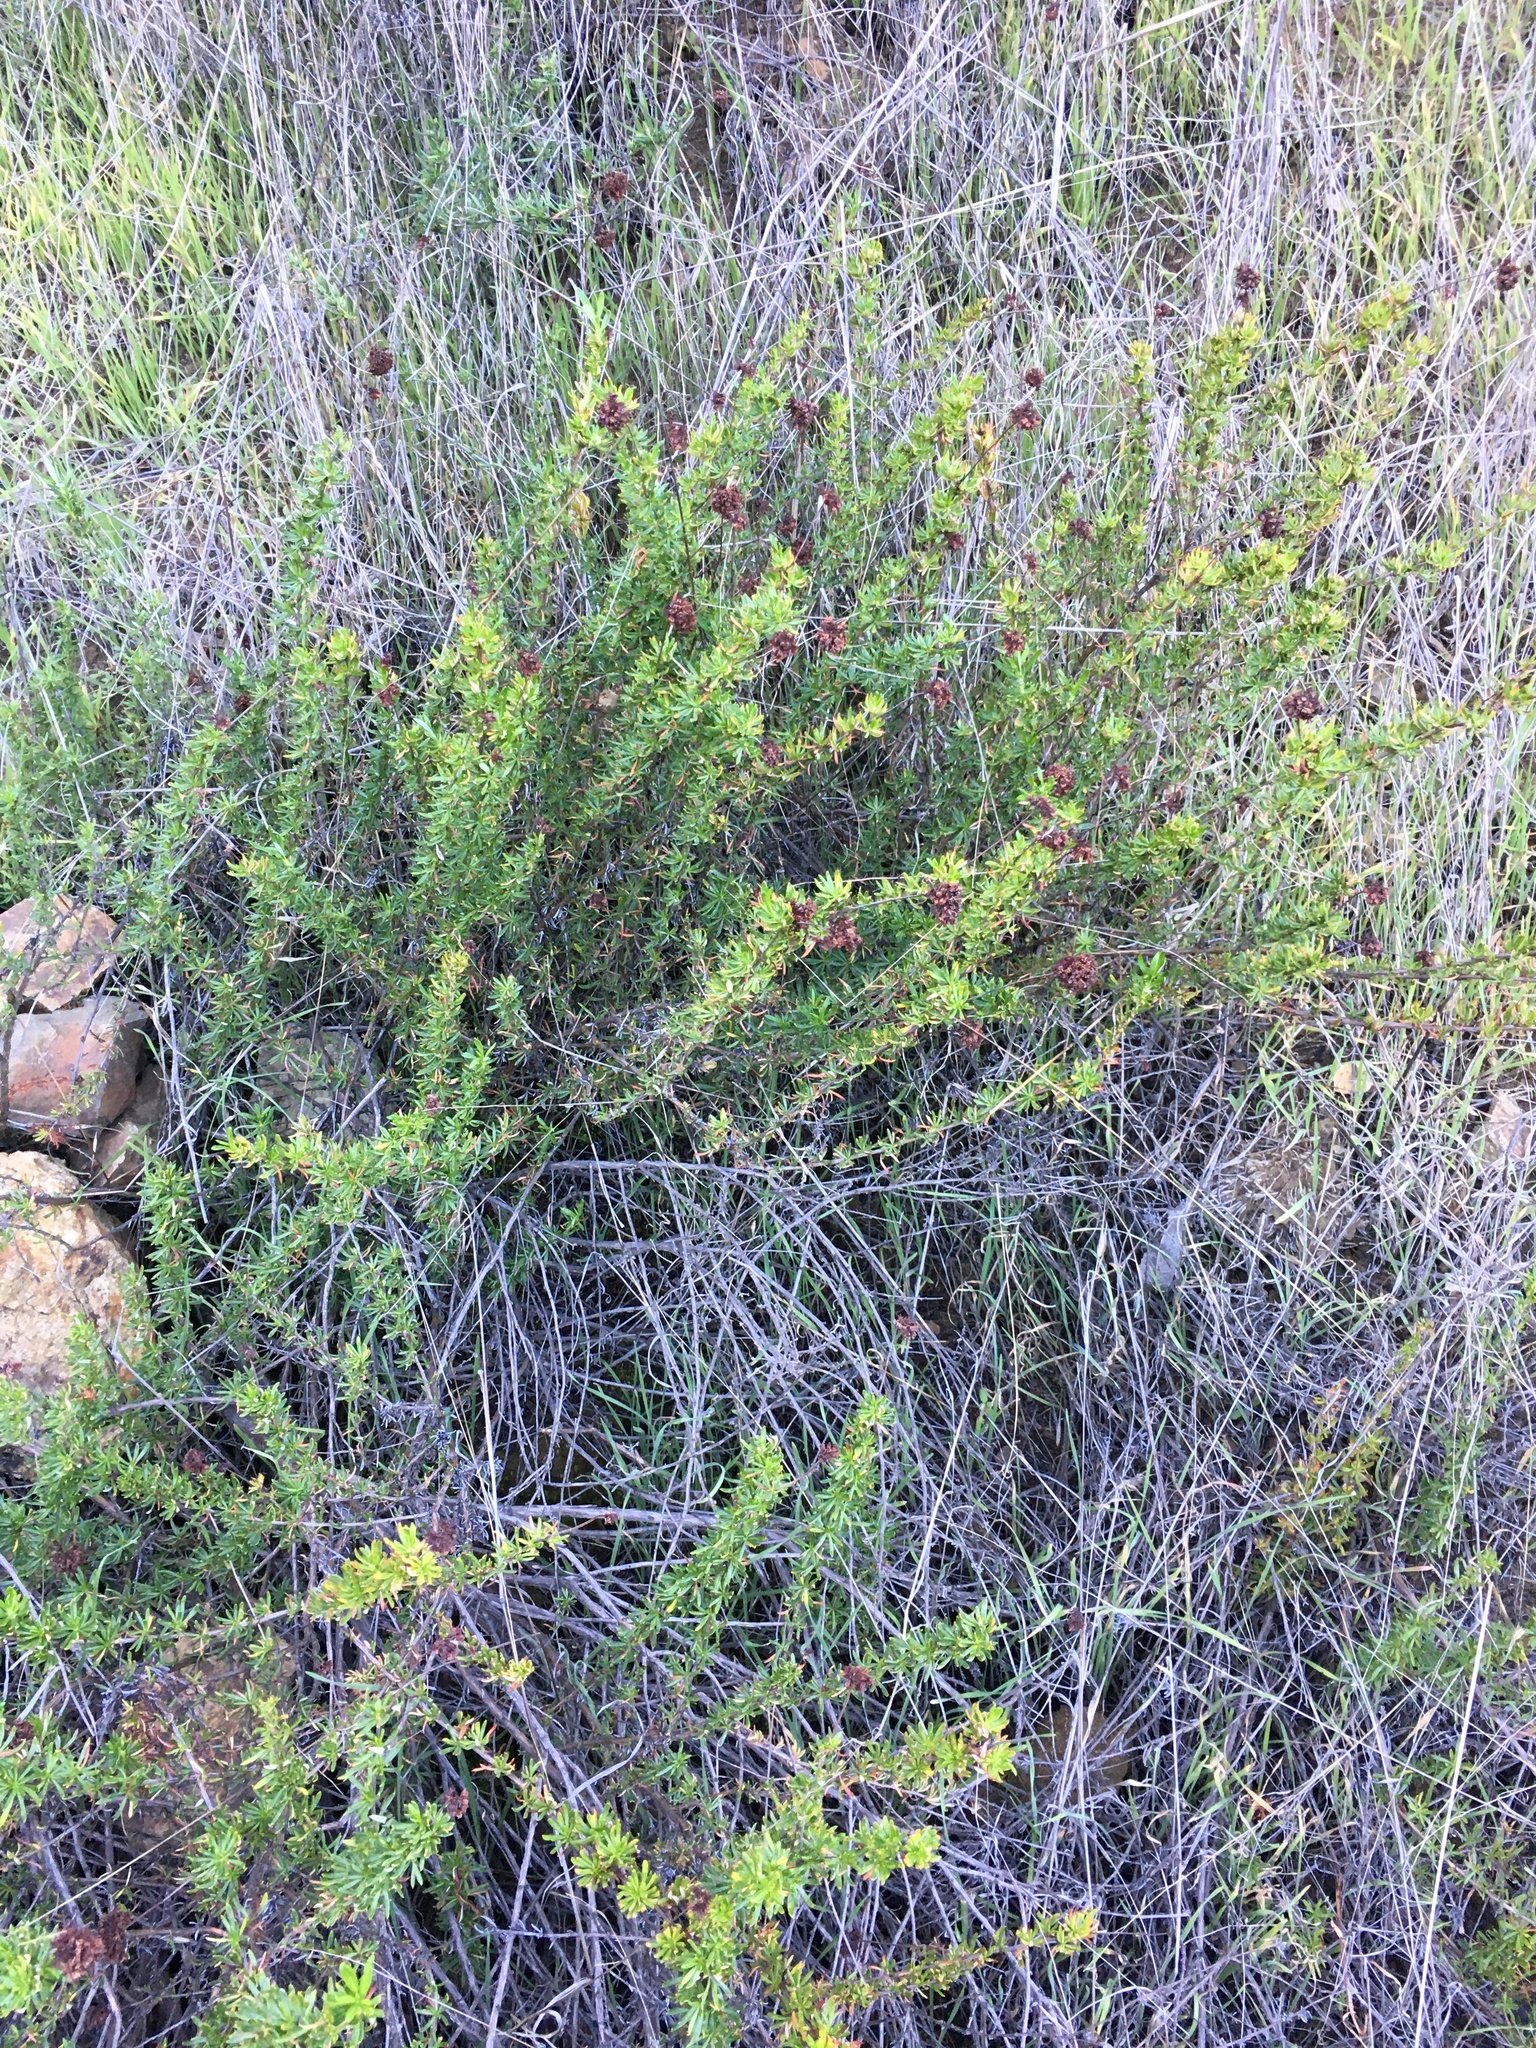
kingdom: Plantae
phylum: Tracheophyta
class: Magnoliopsida
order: Caryophyllales
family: Polygonaceae
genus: Eriogonum
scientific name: Eriogonum fasciculatum
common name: California wild buckwheat
